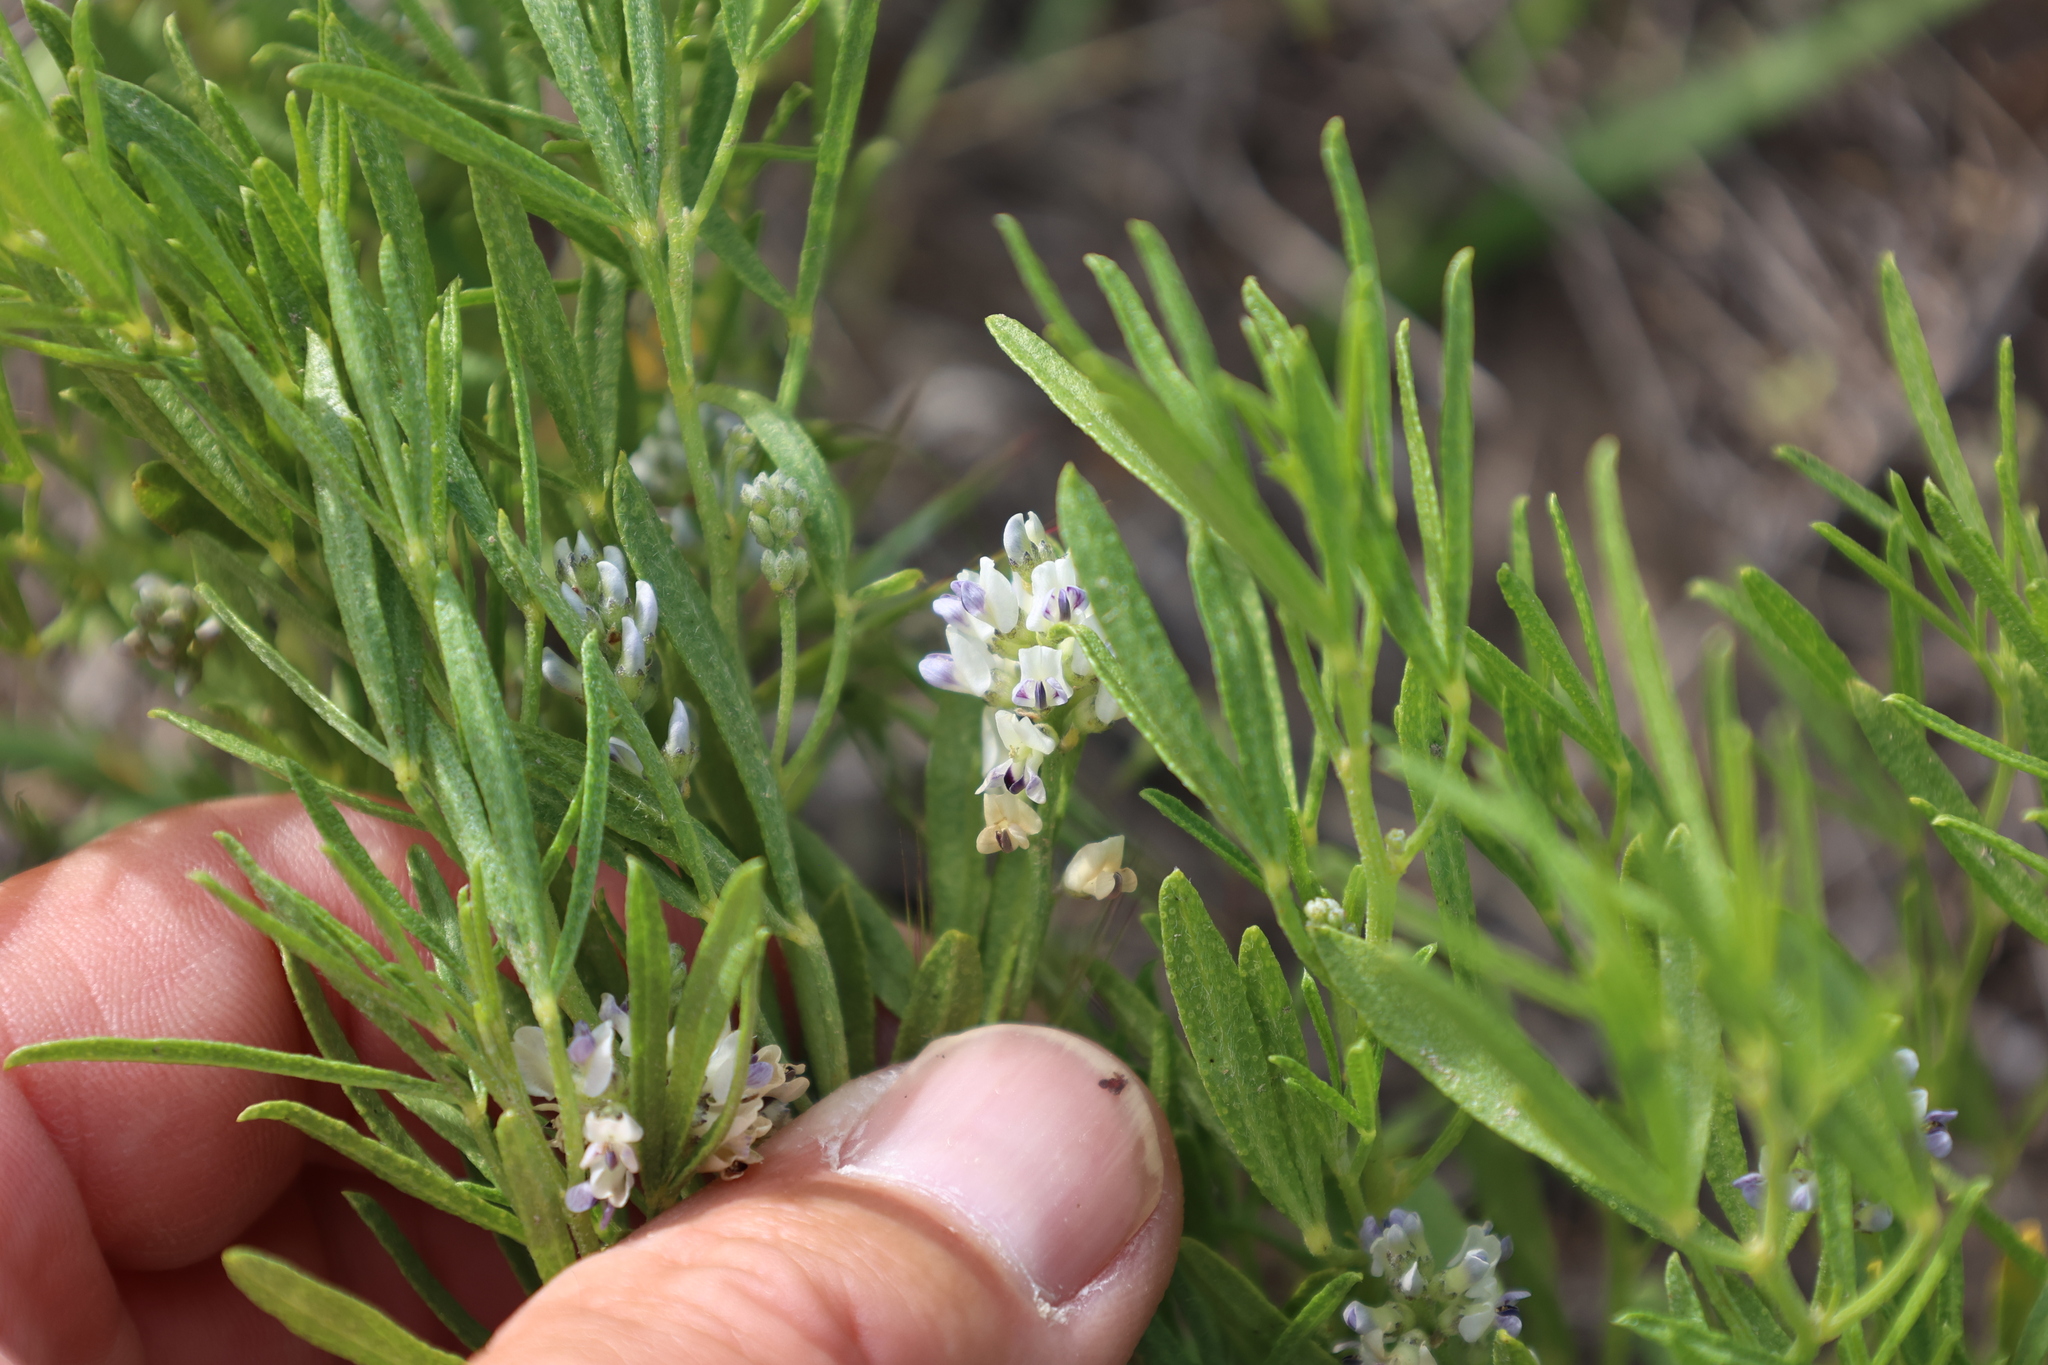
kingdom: Plantae
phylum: Tracheophyta
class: Magnoliopsida
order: Fabales
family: Fabaceae
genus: Ladeania
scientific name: Ladeania lanceolata
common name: Dune scurf-pea
